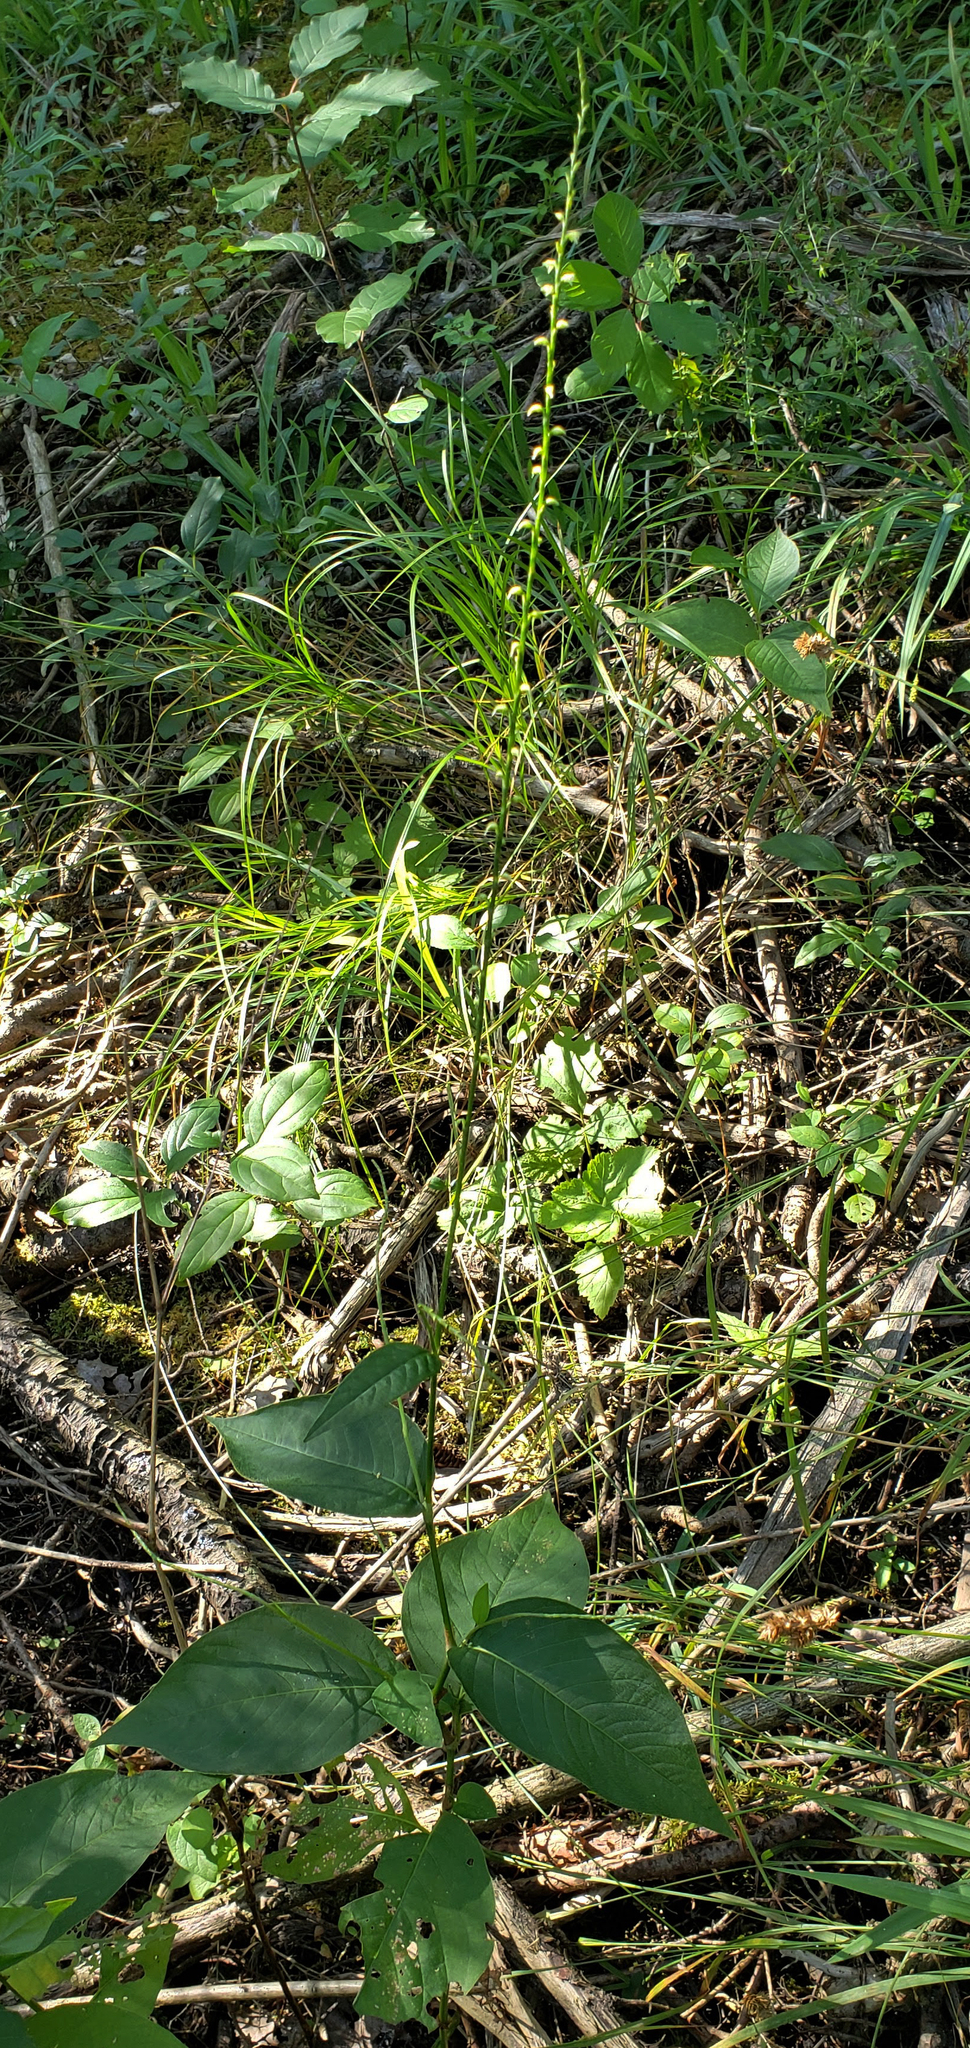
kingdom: Plantae
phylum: Tracheophyta
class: Magnoliopsida
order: Caryophyllales
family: Polygonaceae
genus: Persicaria
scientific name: Persicaria virginiana
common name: Jumpseed
